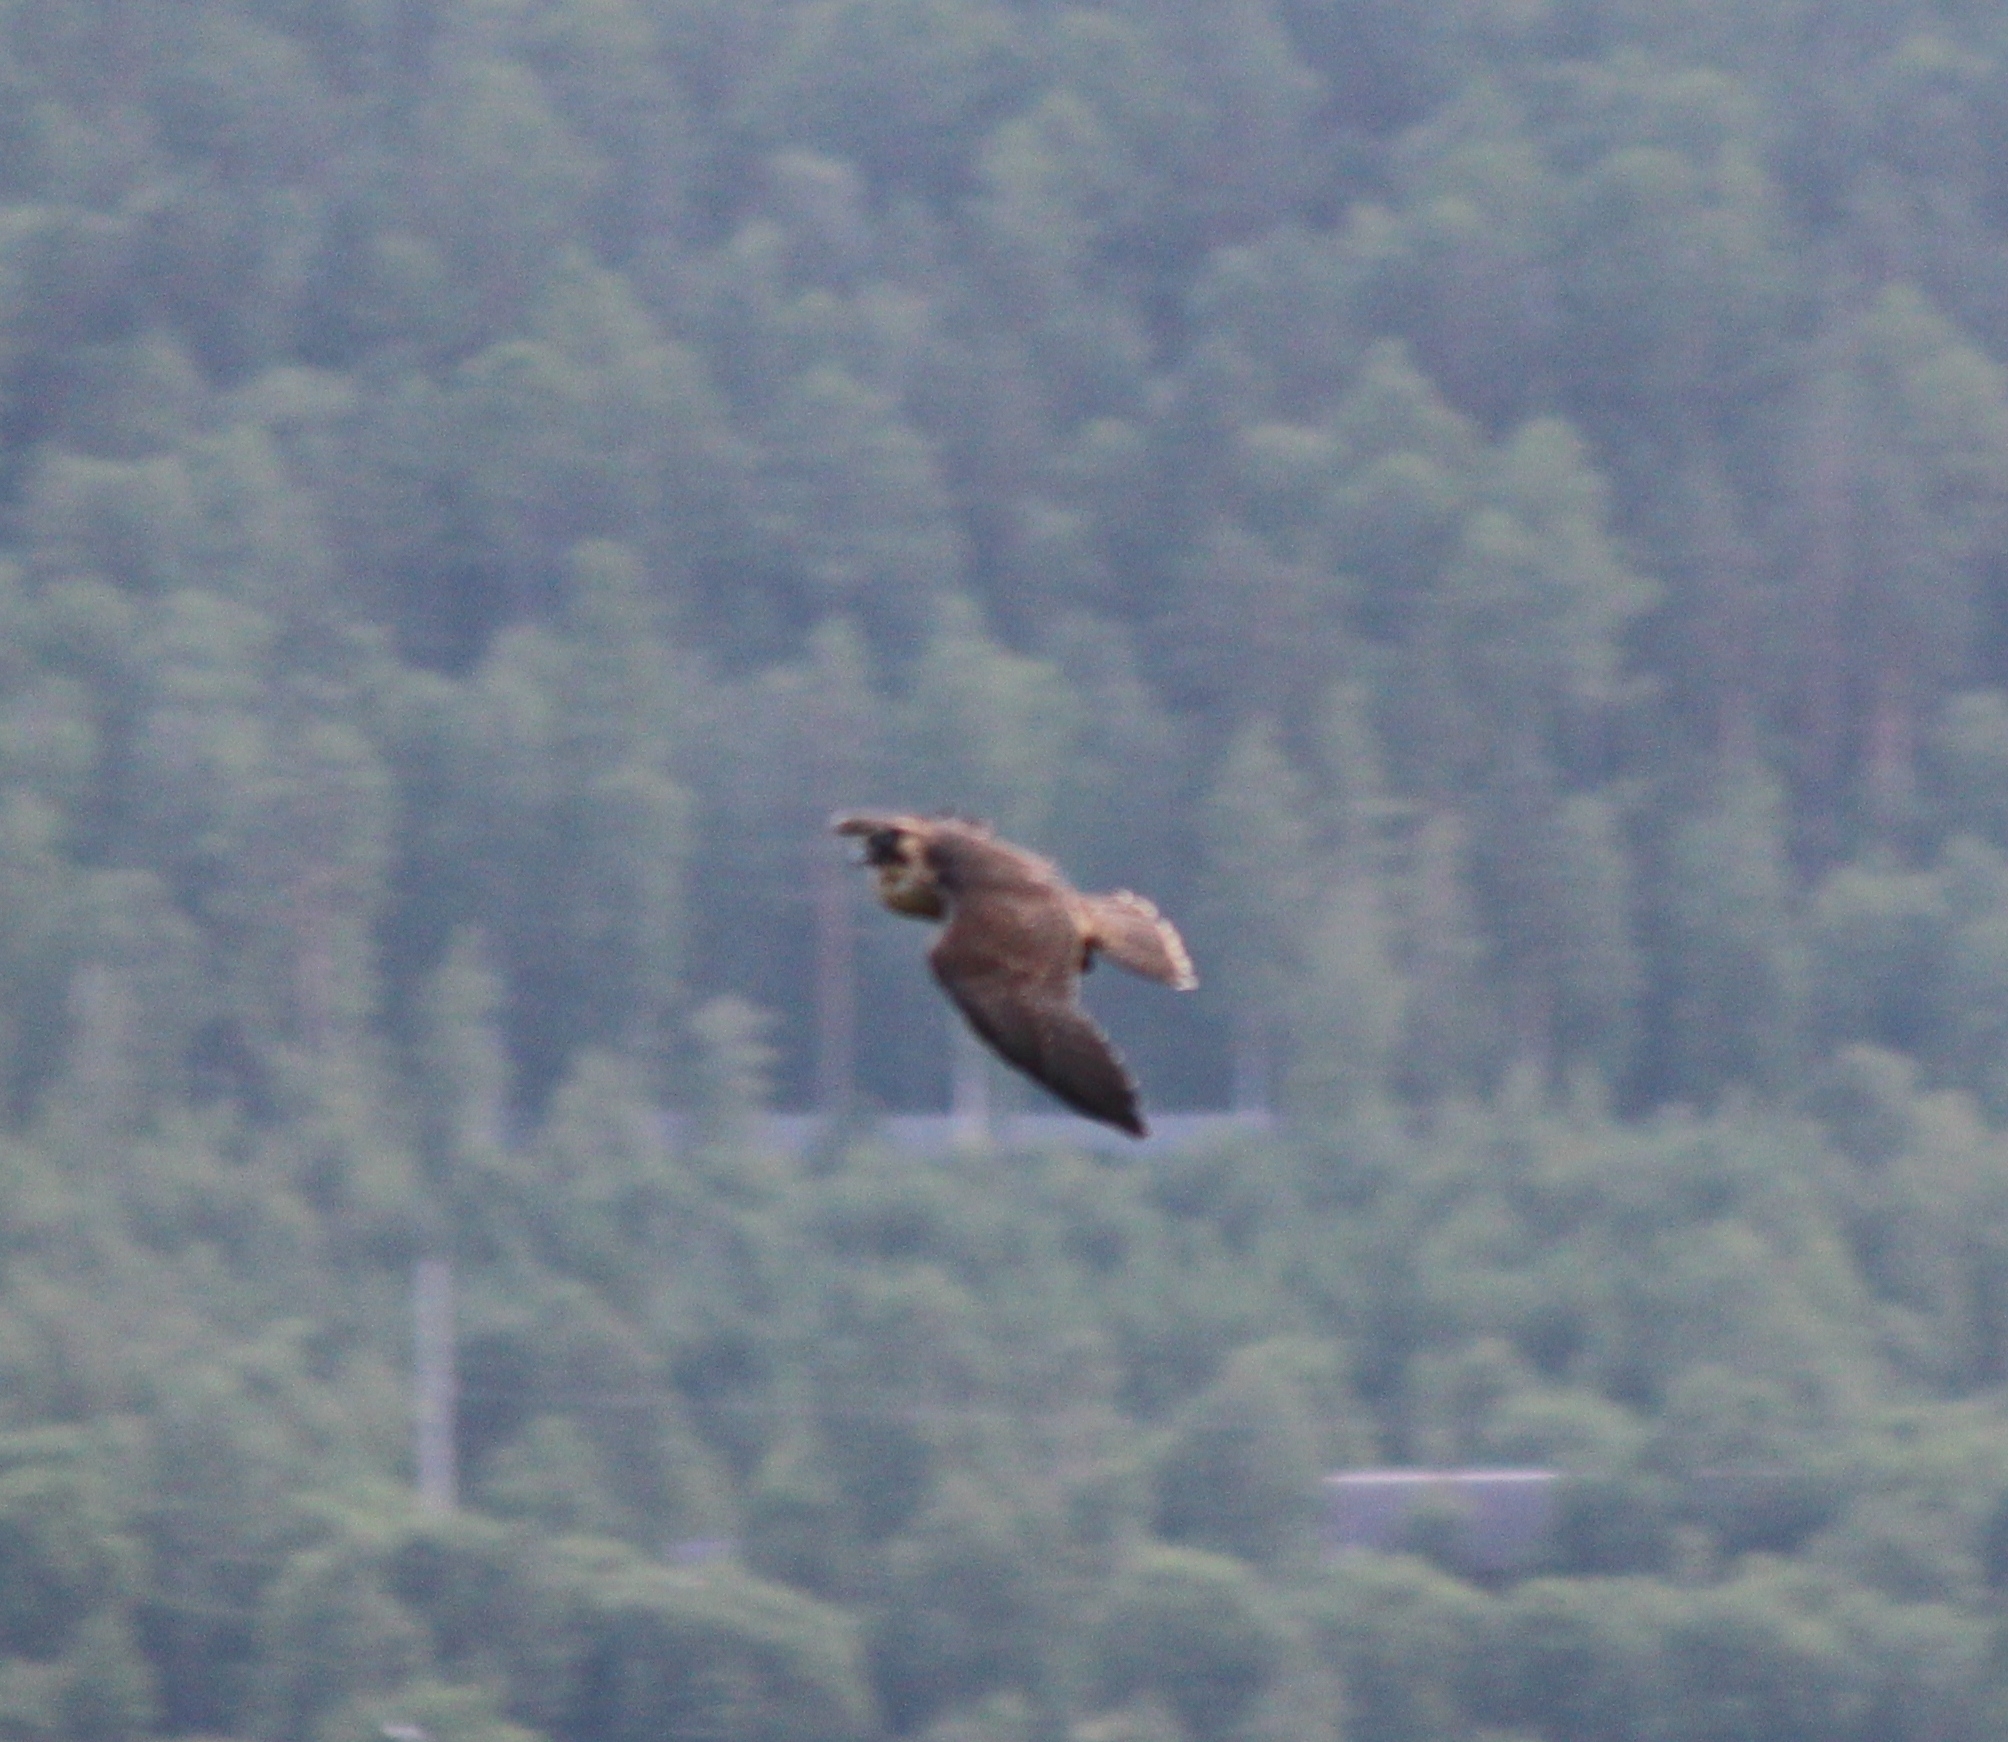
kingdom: Animalia
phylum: Chordata
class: Aves
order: Falconiformes
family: Falconidae
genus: Falco
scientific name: Falco peregrinus
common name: Peregrine falcon
